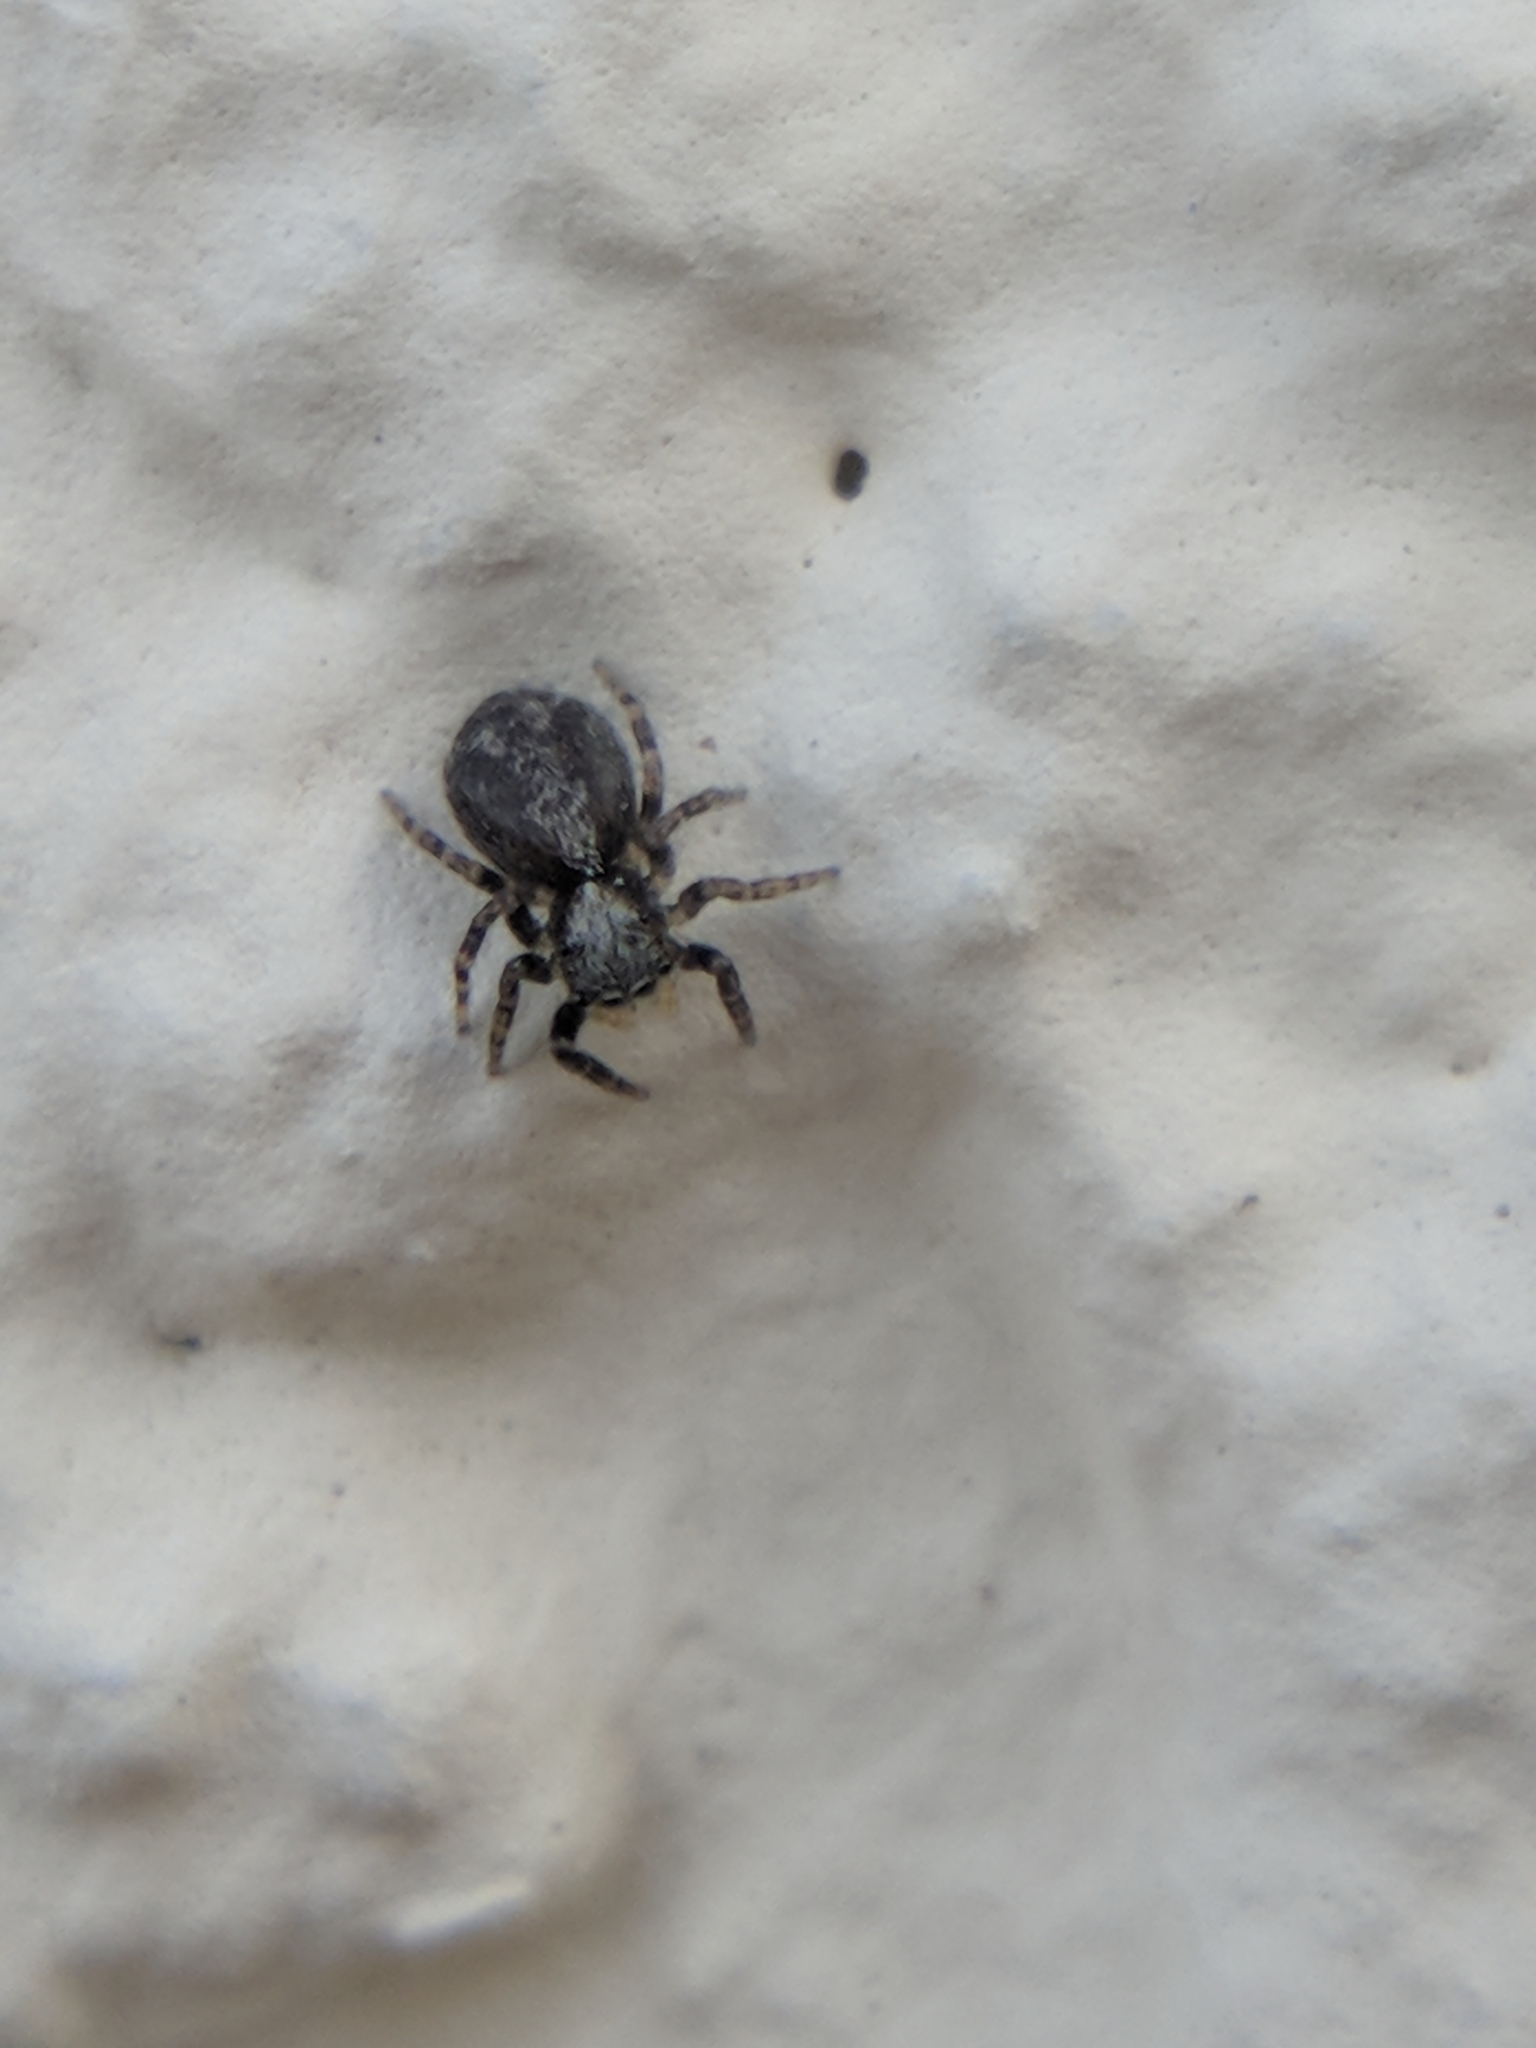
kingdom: Animalia
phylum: Arthropoda
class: Arachnida
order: Araneae
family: Salticidae
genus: Pseudeuophrys
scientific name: Pseudeuophrys lanigera
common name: Jumping spider
